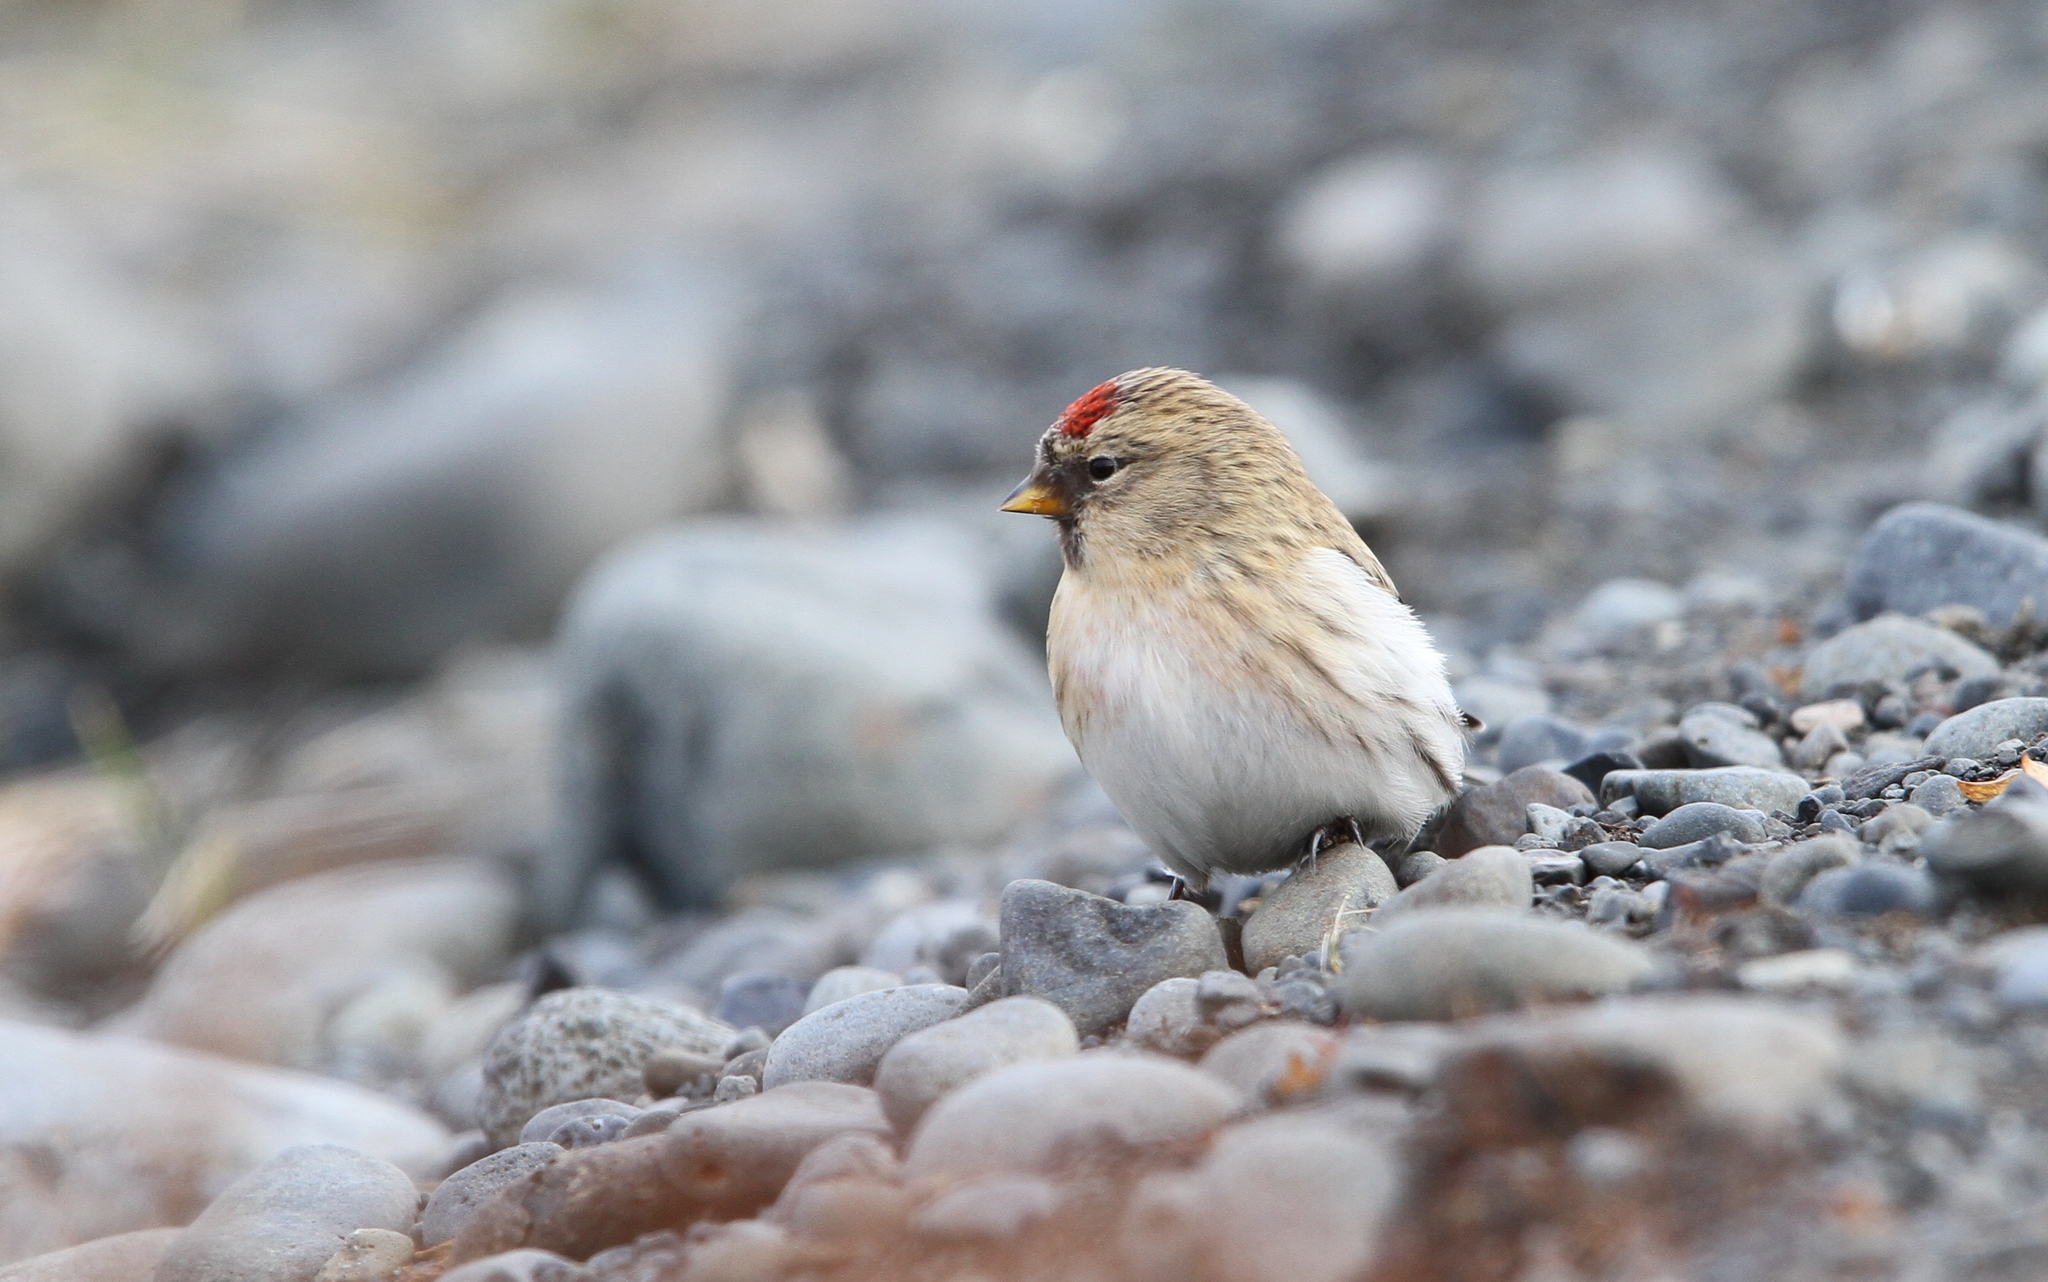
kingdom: Animalia
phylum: Chordata
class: Aves
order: Passeriformes
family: Fringillidae
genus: Acanthis
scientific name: Acanthis flammea
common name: Common redpoll
